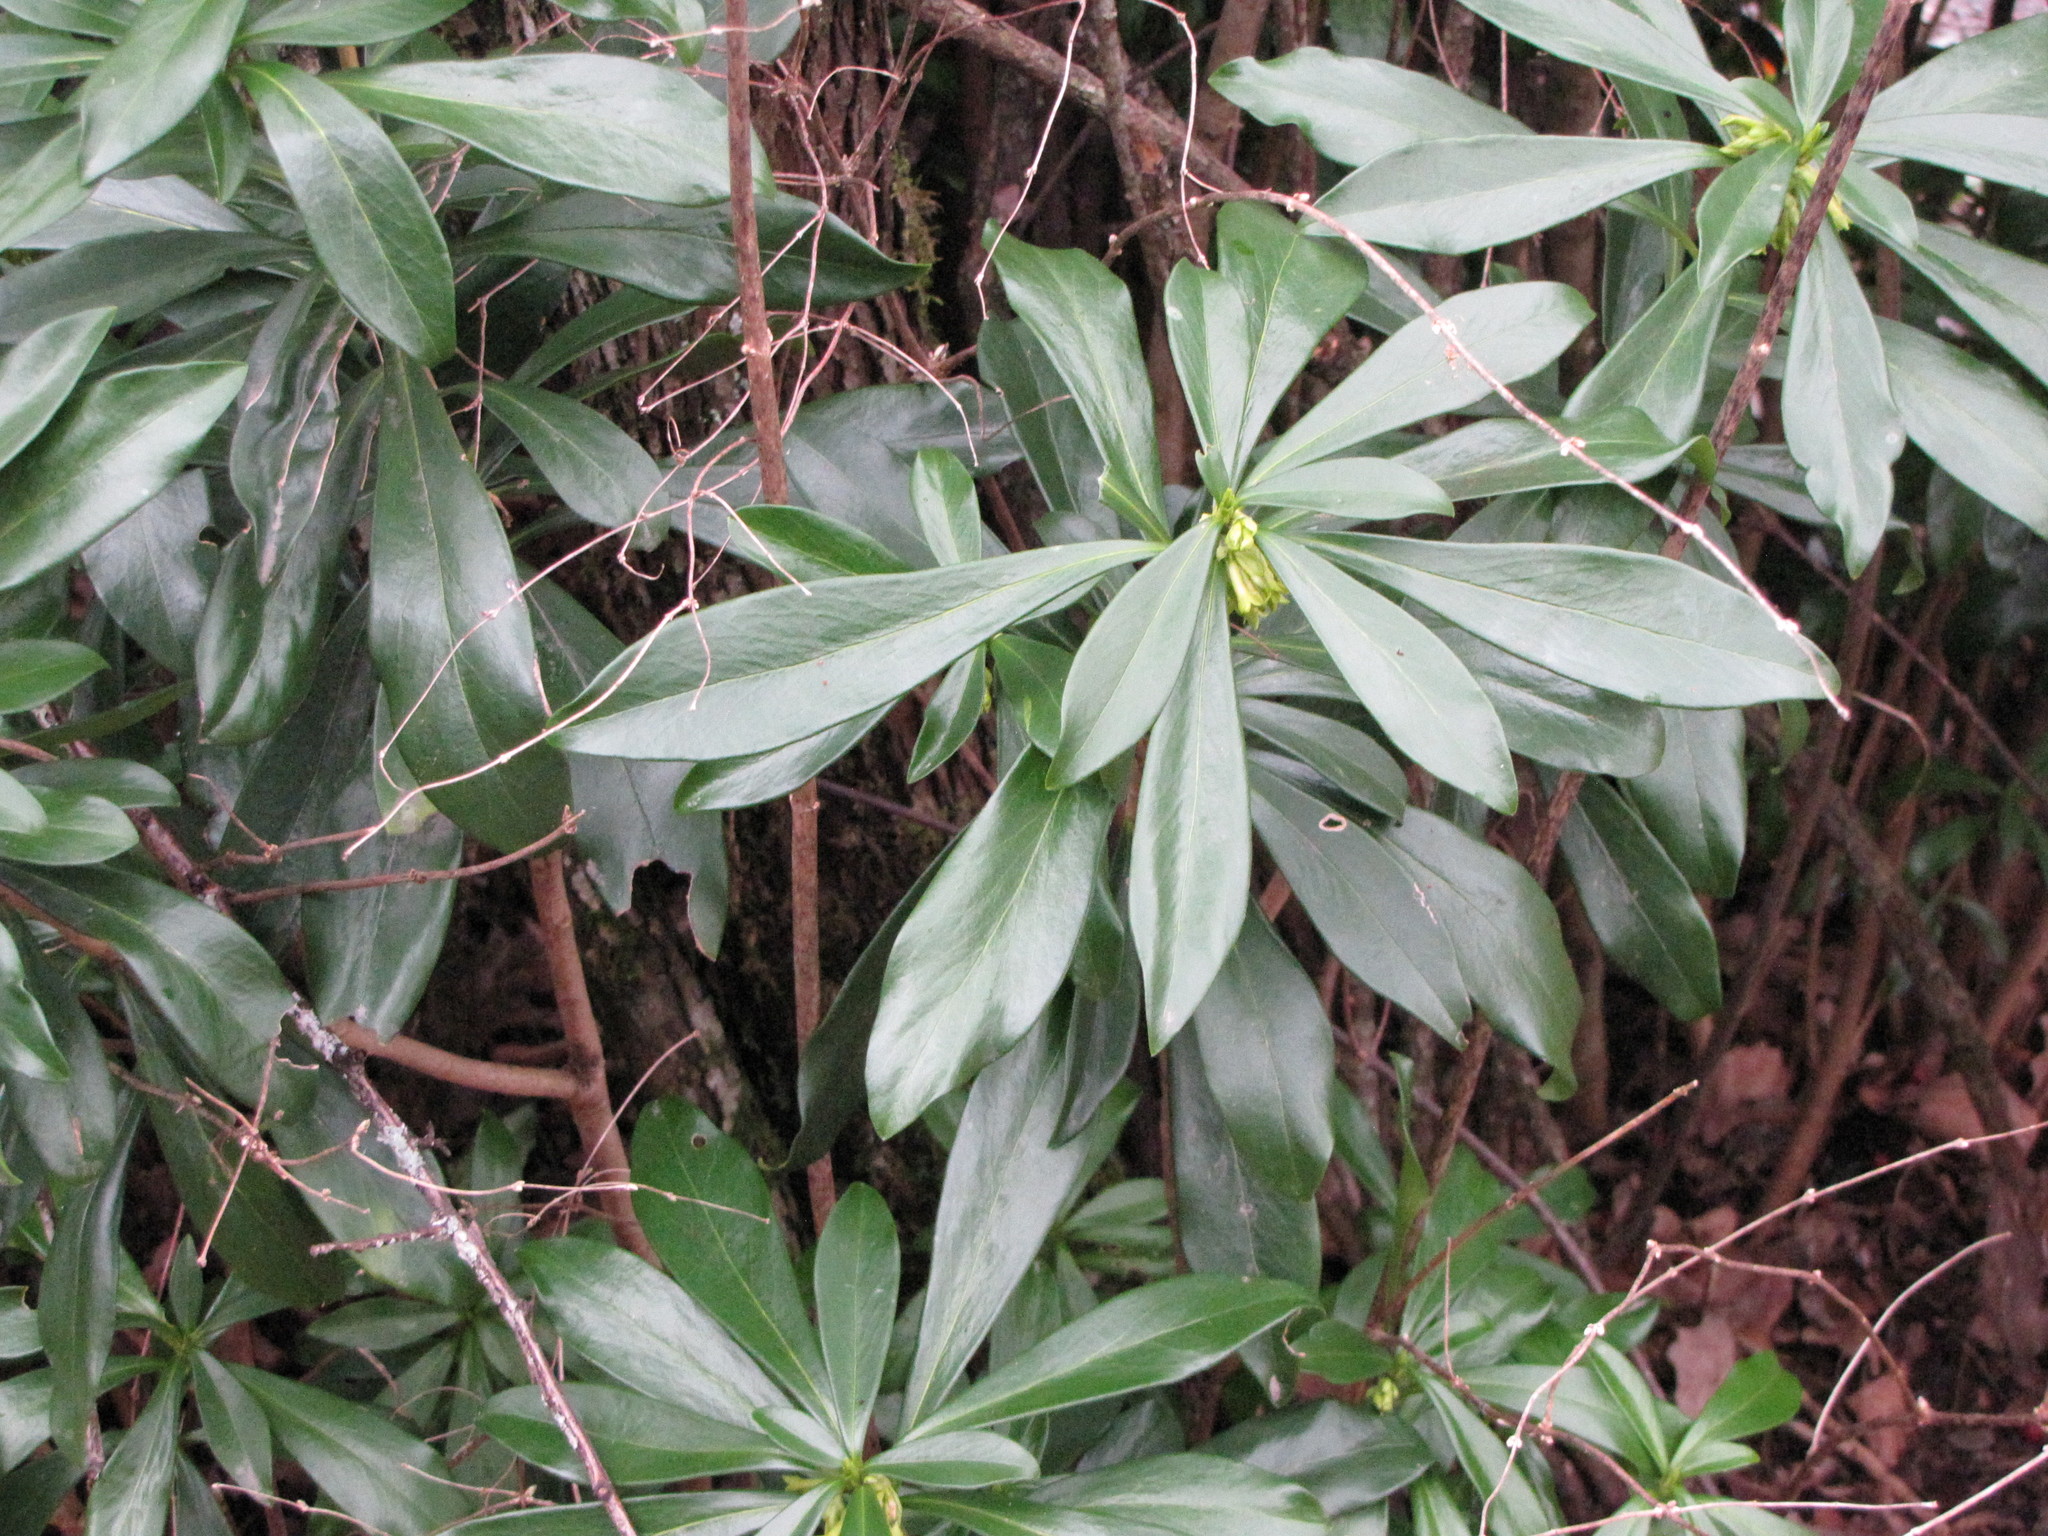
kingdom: Plantae
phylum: Tracheophyta
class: Magnoliopsida
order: Malvales
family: Thymelaeaceae
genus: Daphne
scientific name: Daphne laureola
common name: Spurge-laurel
